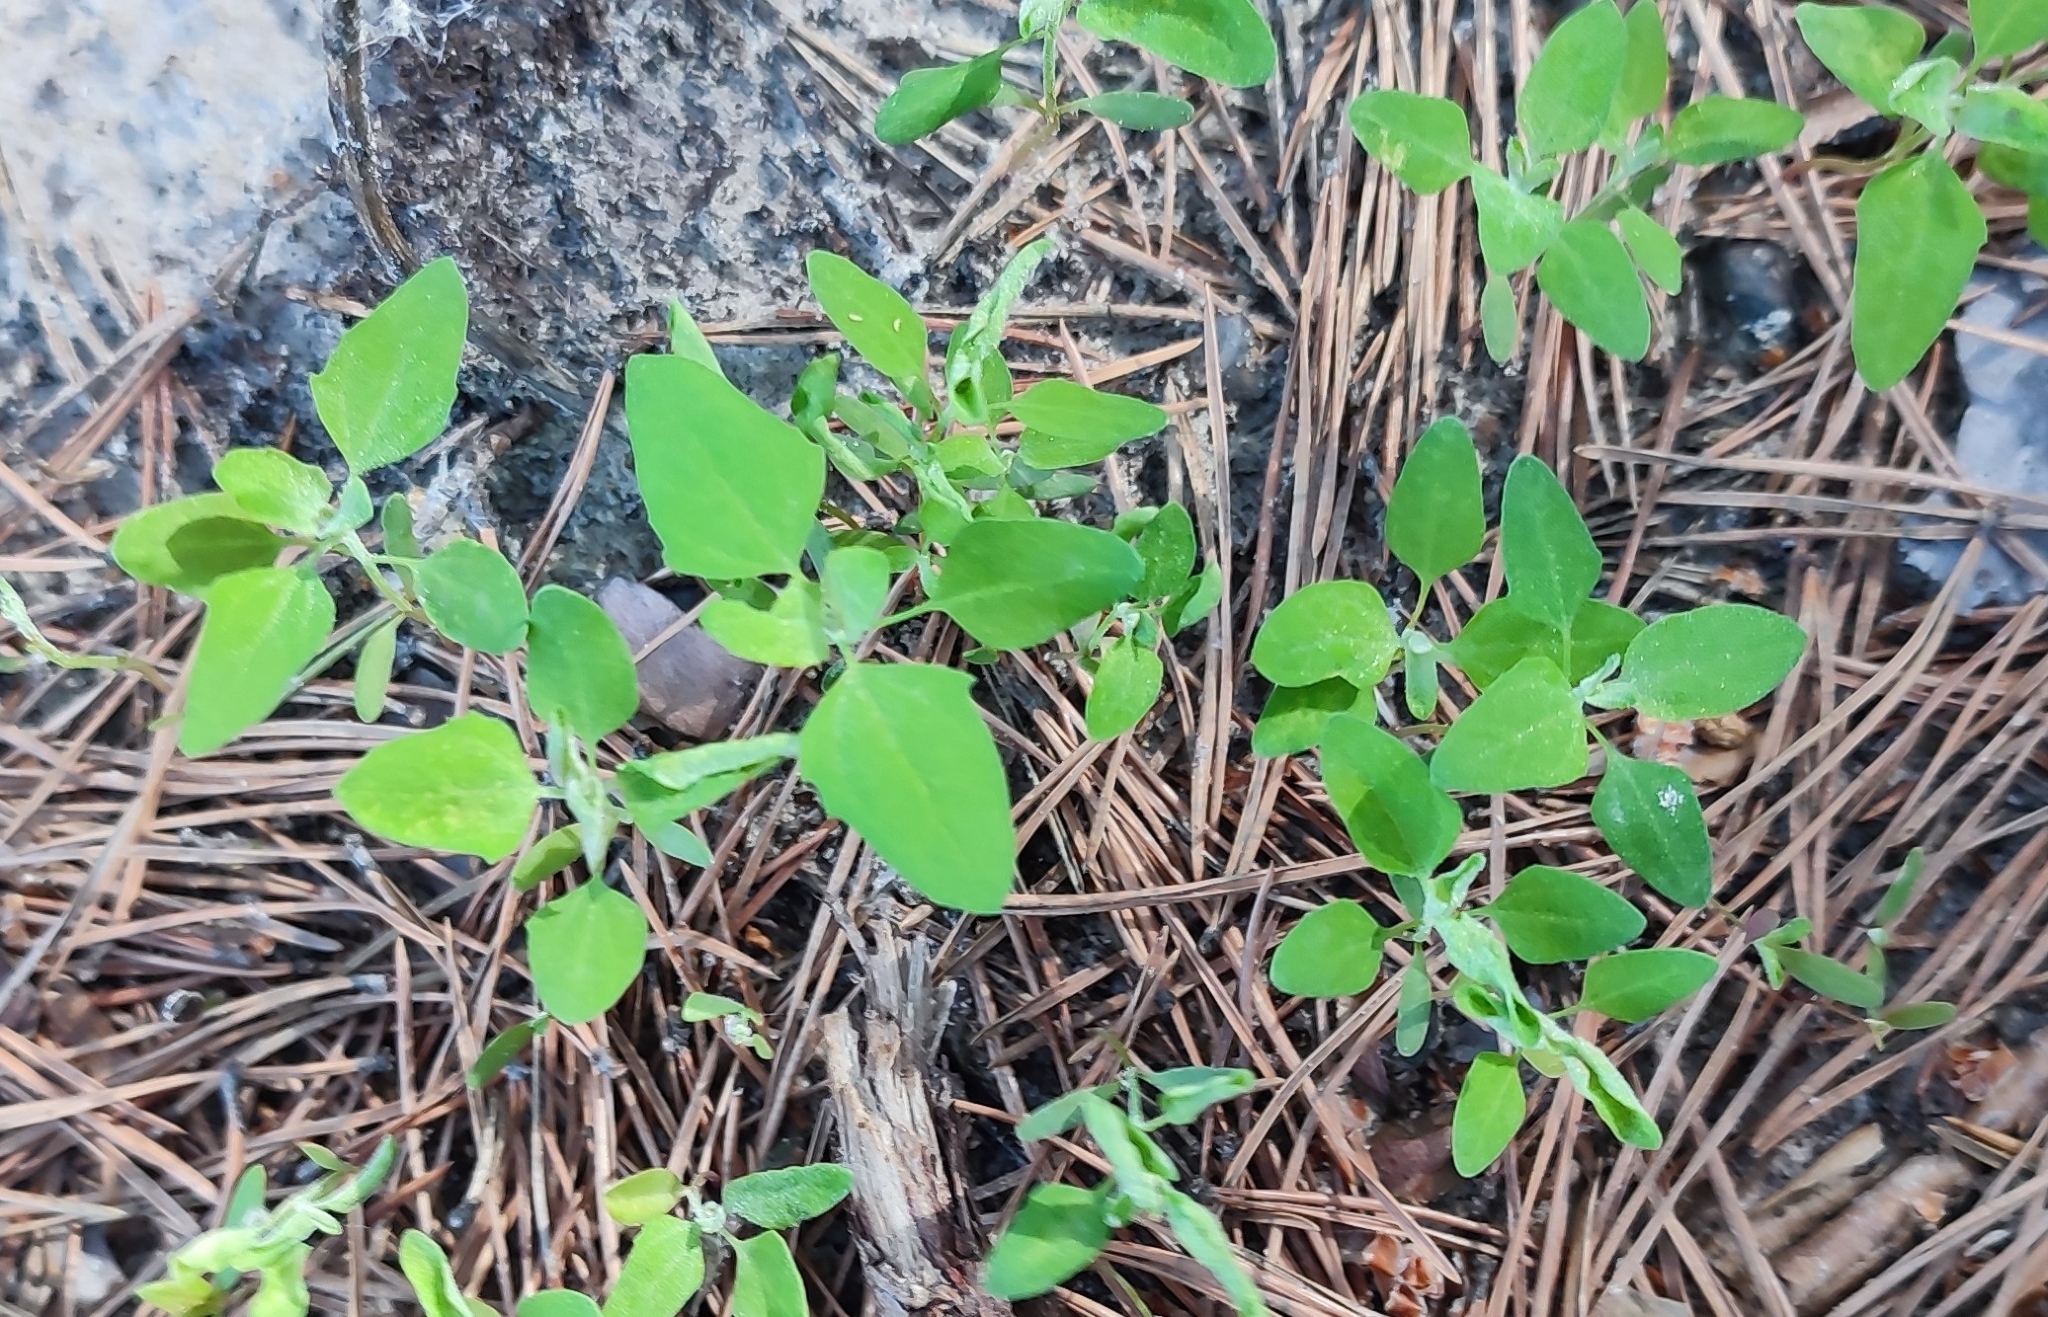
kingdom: Plantae
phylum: Tracheophyta
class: Magnoliopsida
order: Caryophyllales
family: Amaranthaceae
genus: Chenopodium
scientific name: Chenopodium album
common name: Fat-hen
